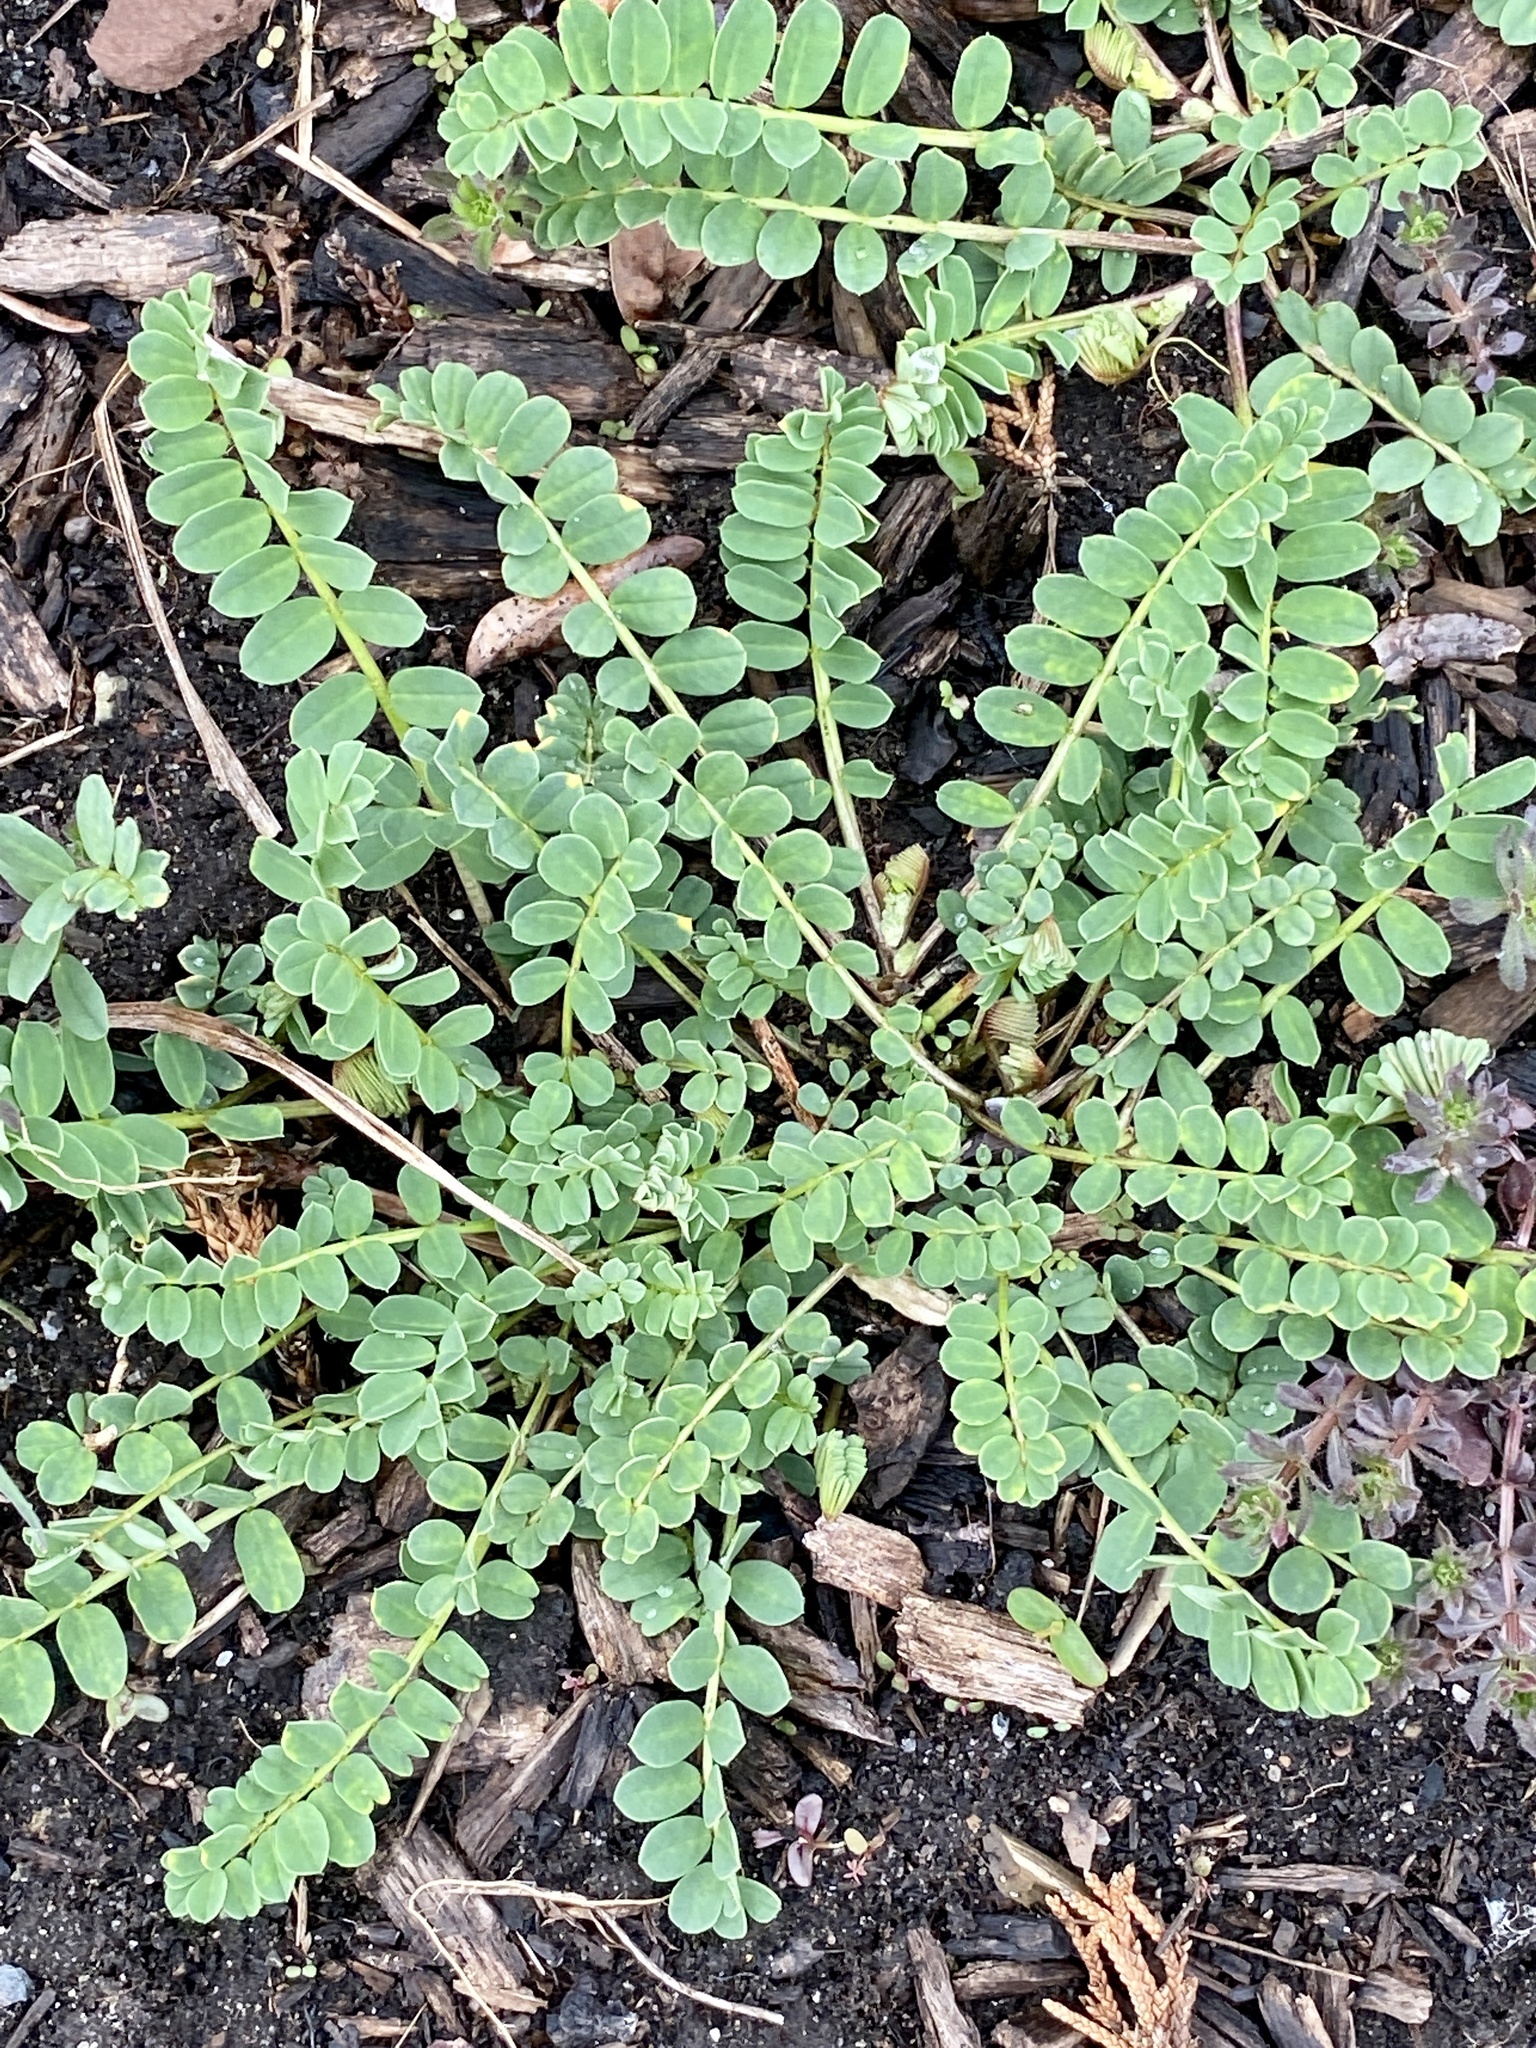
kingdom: Plantae
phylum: Tracheophyta
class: Magnoliopsida
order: Fabales
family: Fabaceae
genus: Coronilla
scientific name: Coronilla varia
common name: Crownvetch
